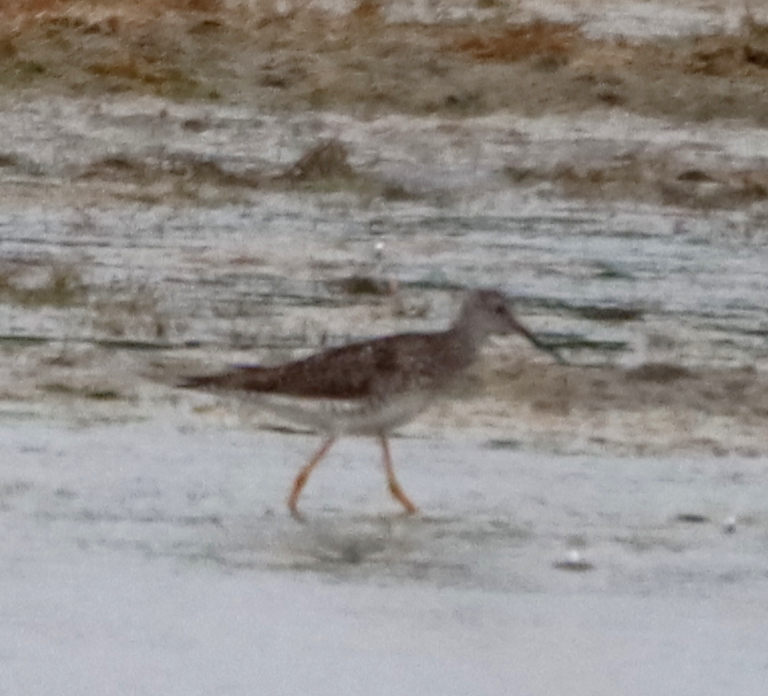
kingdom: Animalia
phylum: Chordata
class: Aves
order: Charadriiformes
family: Scolopacidae
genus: Tringa
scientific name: Tringa flavipes
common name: Lesser yellowlegs
